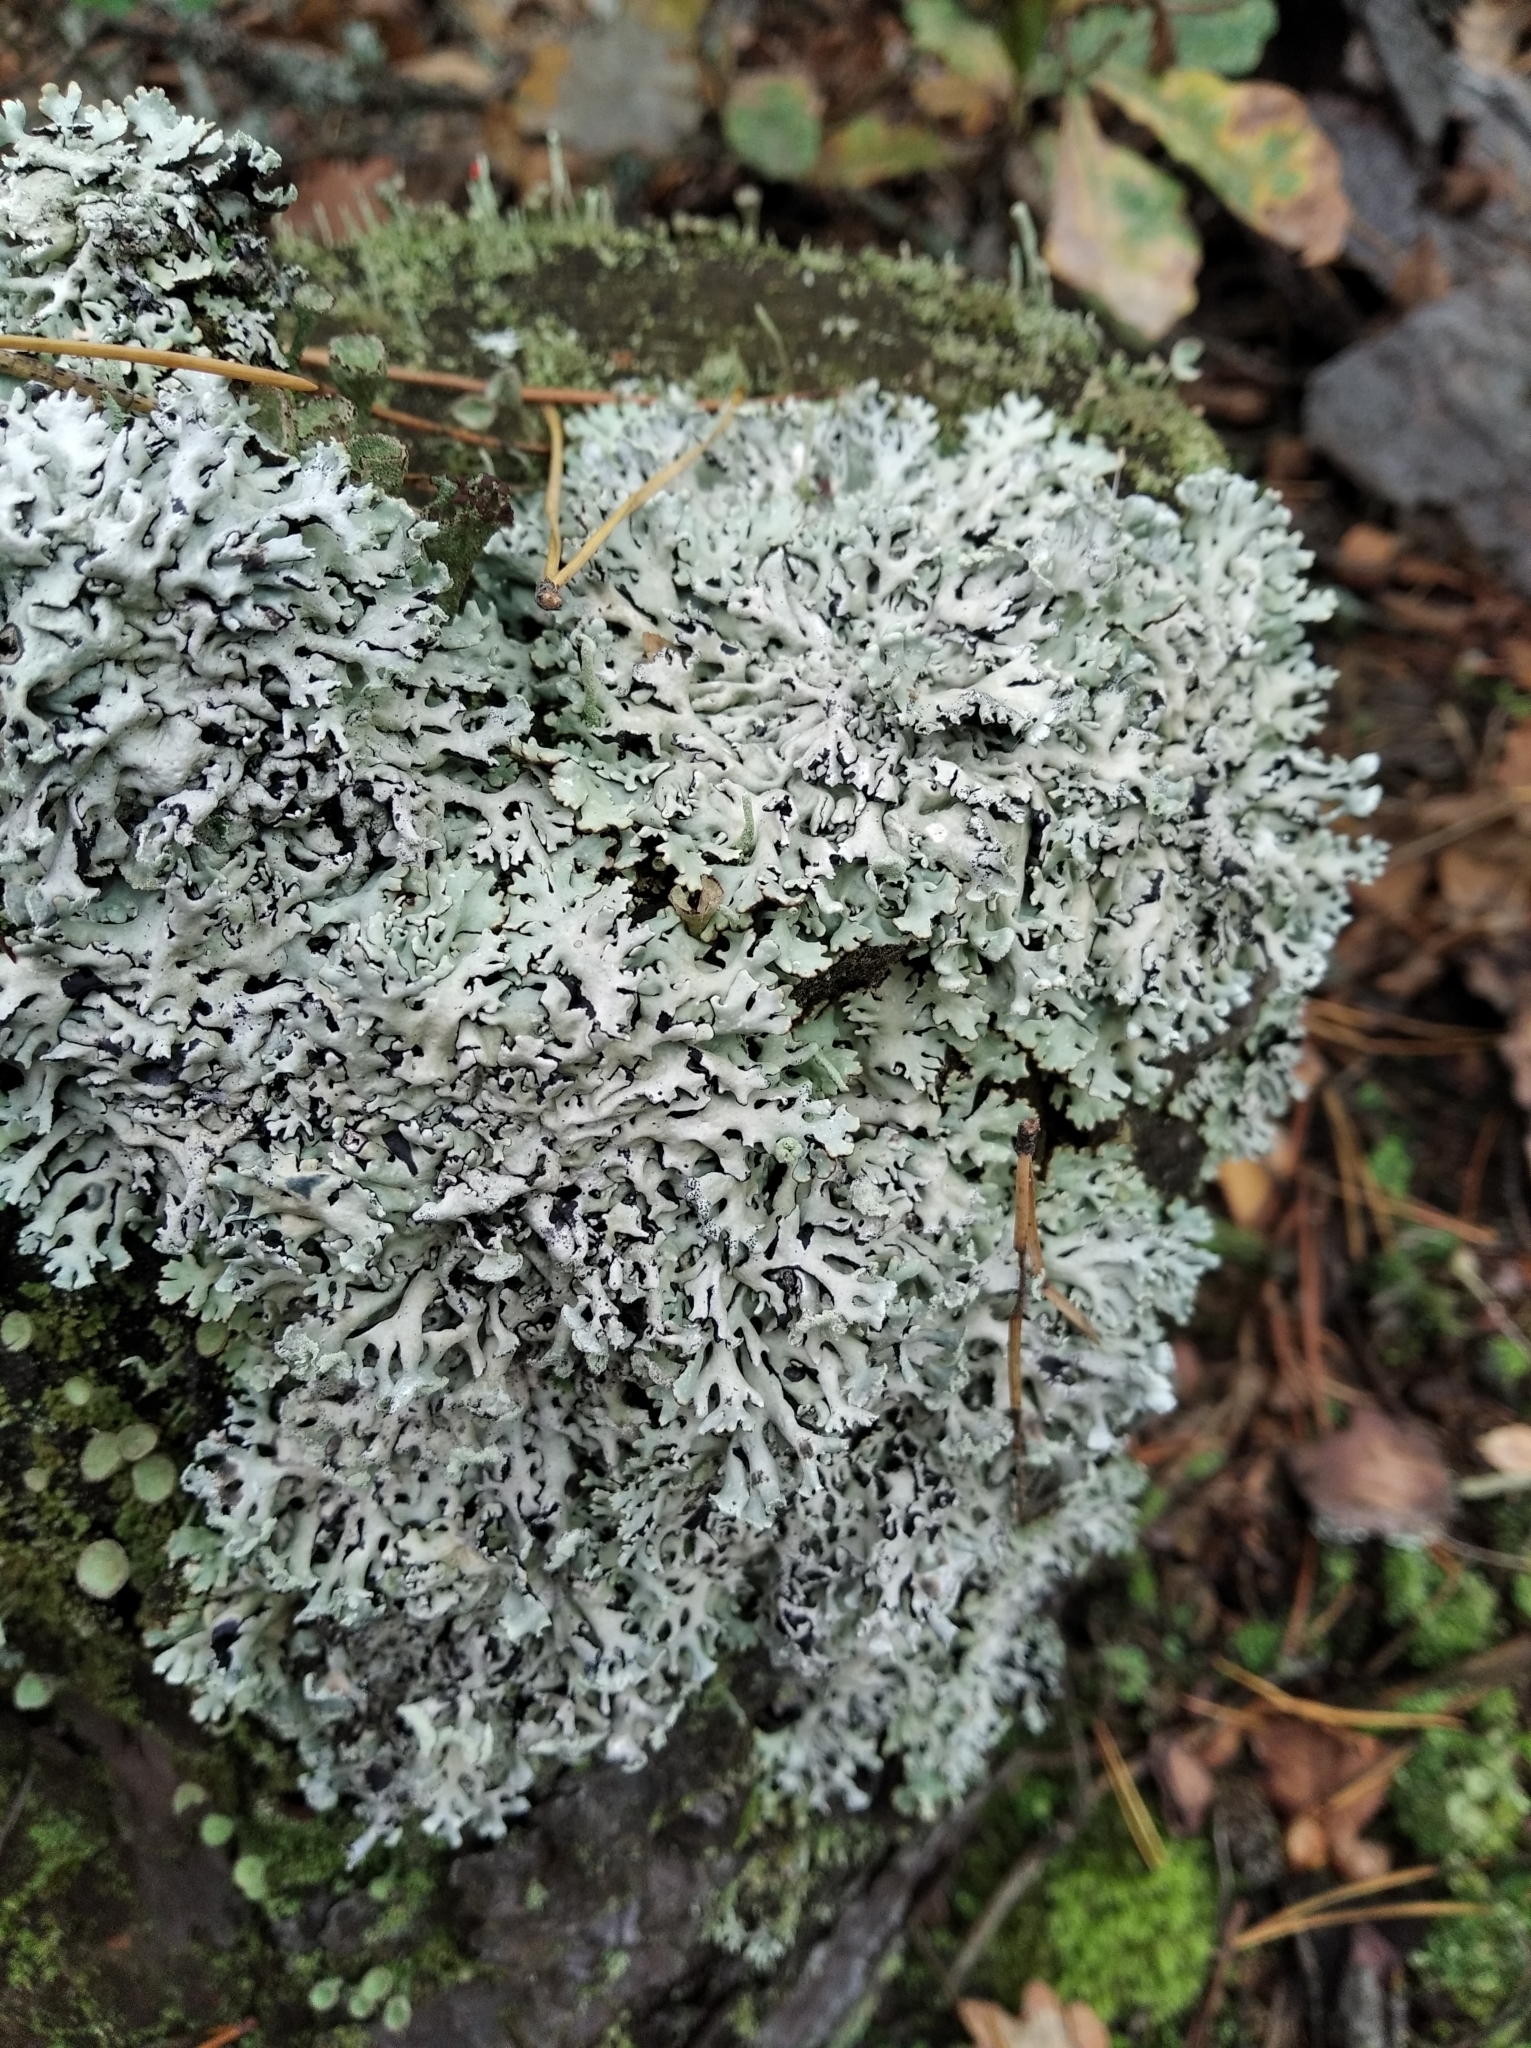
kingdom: Fungi
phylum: Ascomycota
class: Lecanoromycetes
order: Lecanorales
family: Parmeliaceae
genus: Hypogymnia
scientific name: Hypogymnia physodes
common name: Dark crottle
